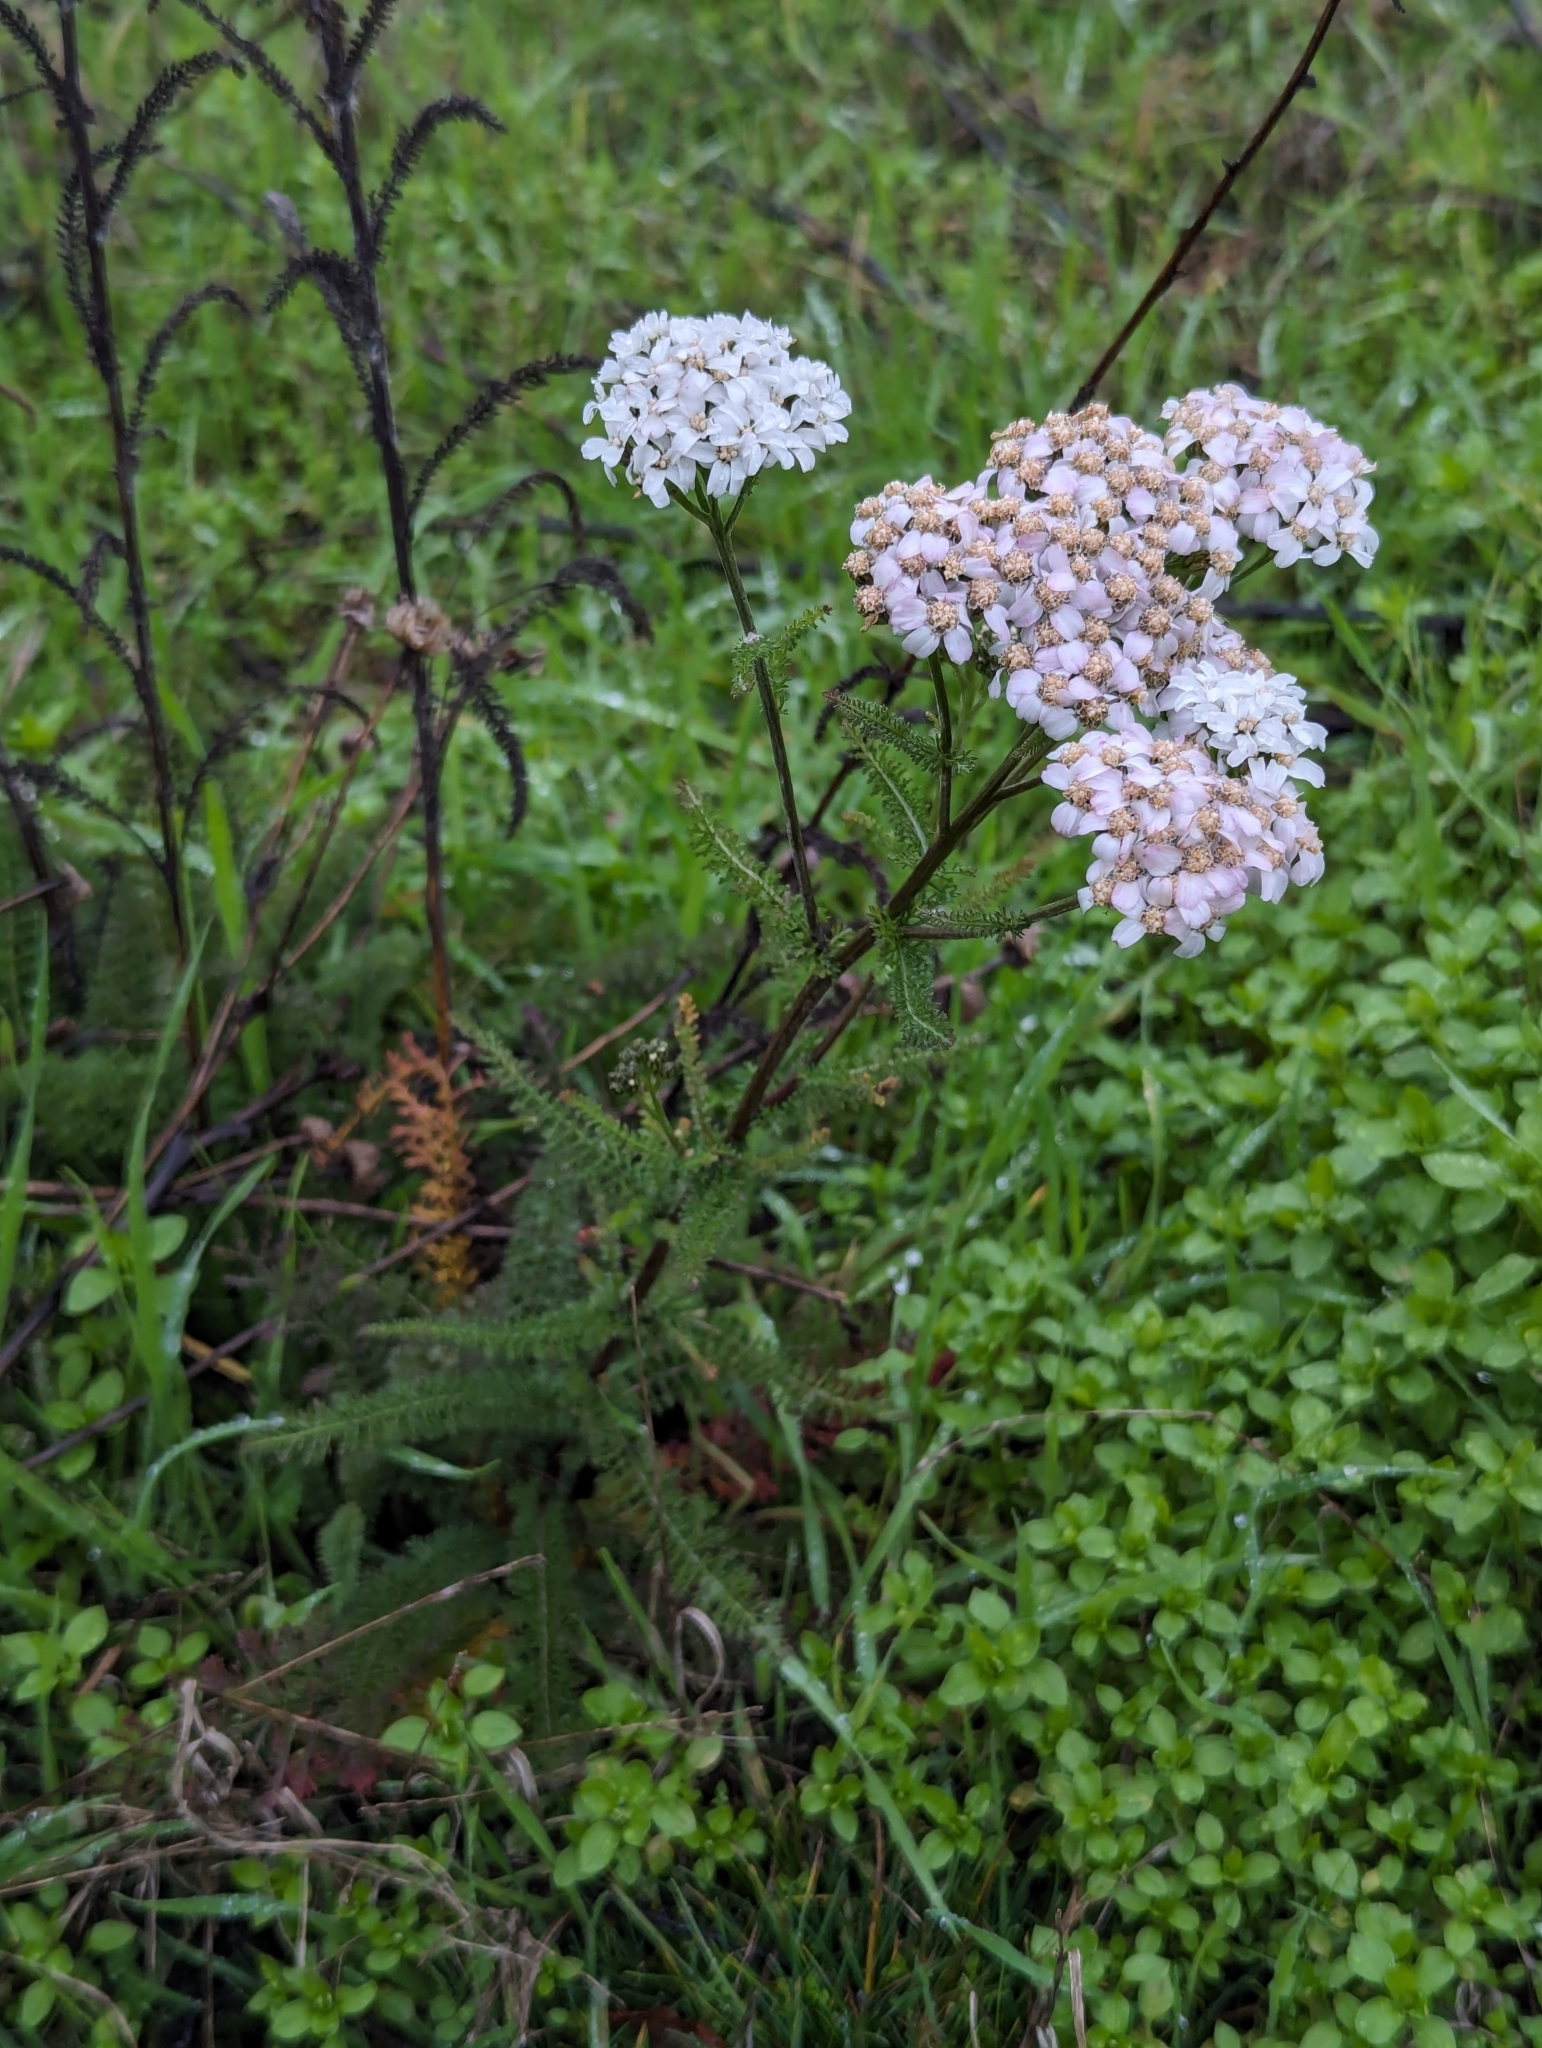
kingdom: Plantae
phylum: Tracheophyta
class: Magnoliopsida
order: Asterales
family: Asteraceae
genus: Achillea
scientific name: Achillea millefolium
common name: Yarrow
